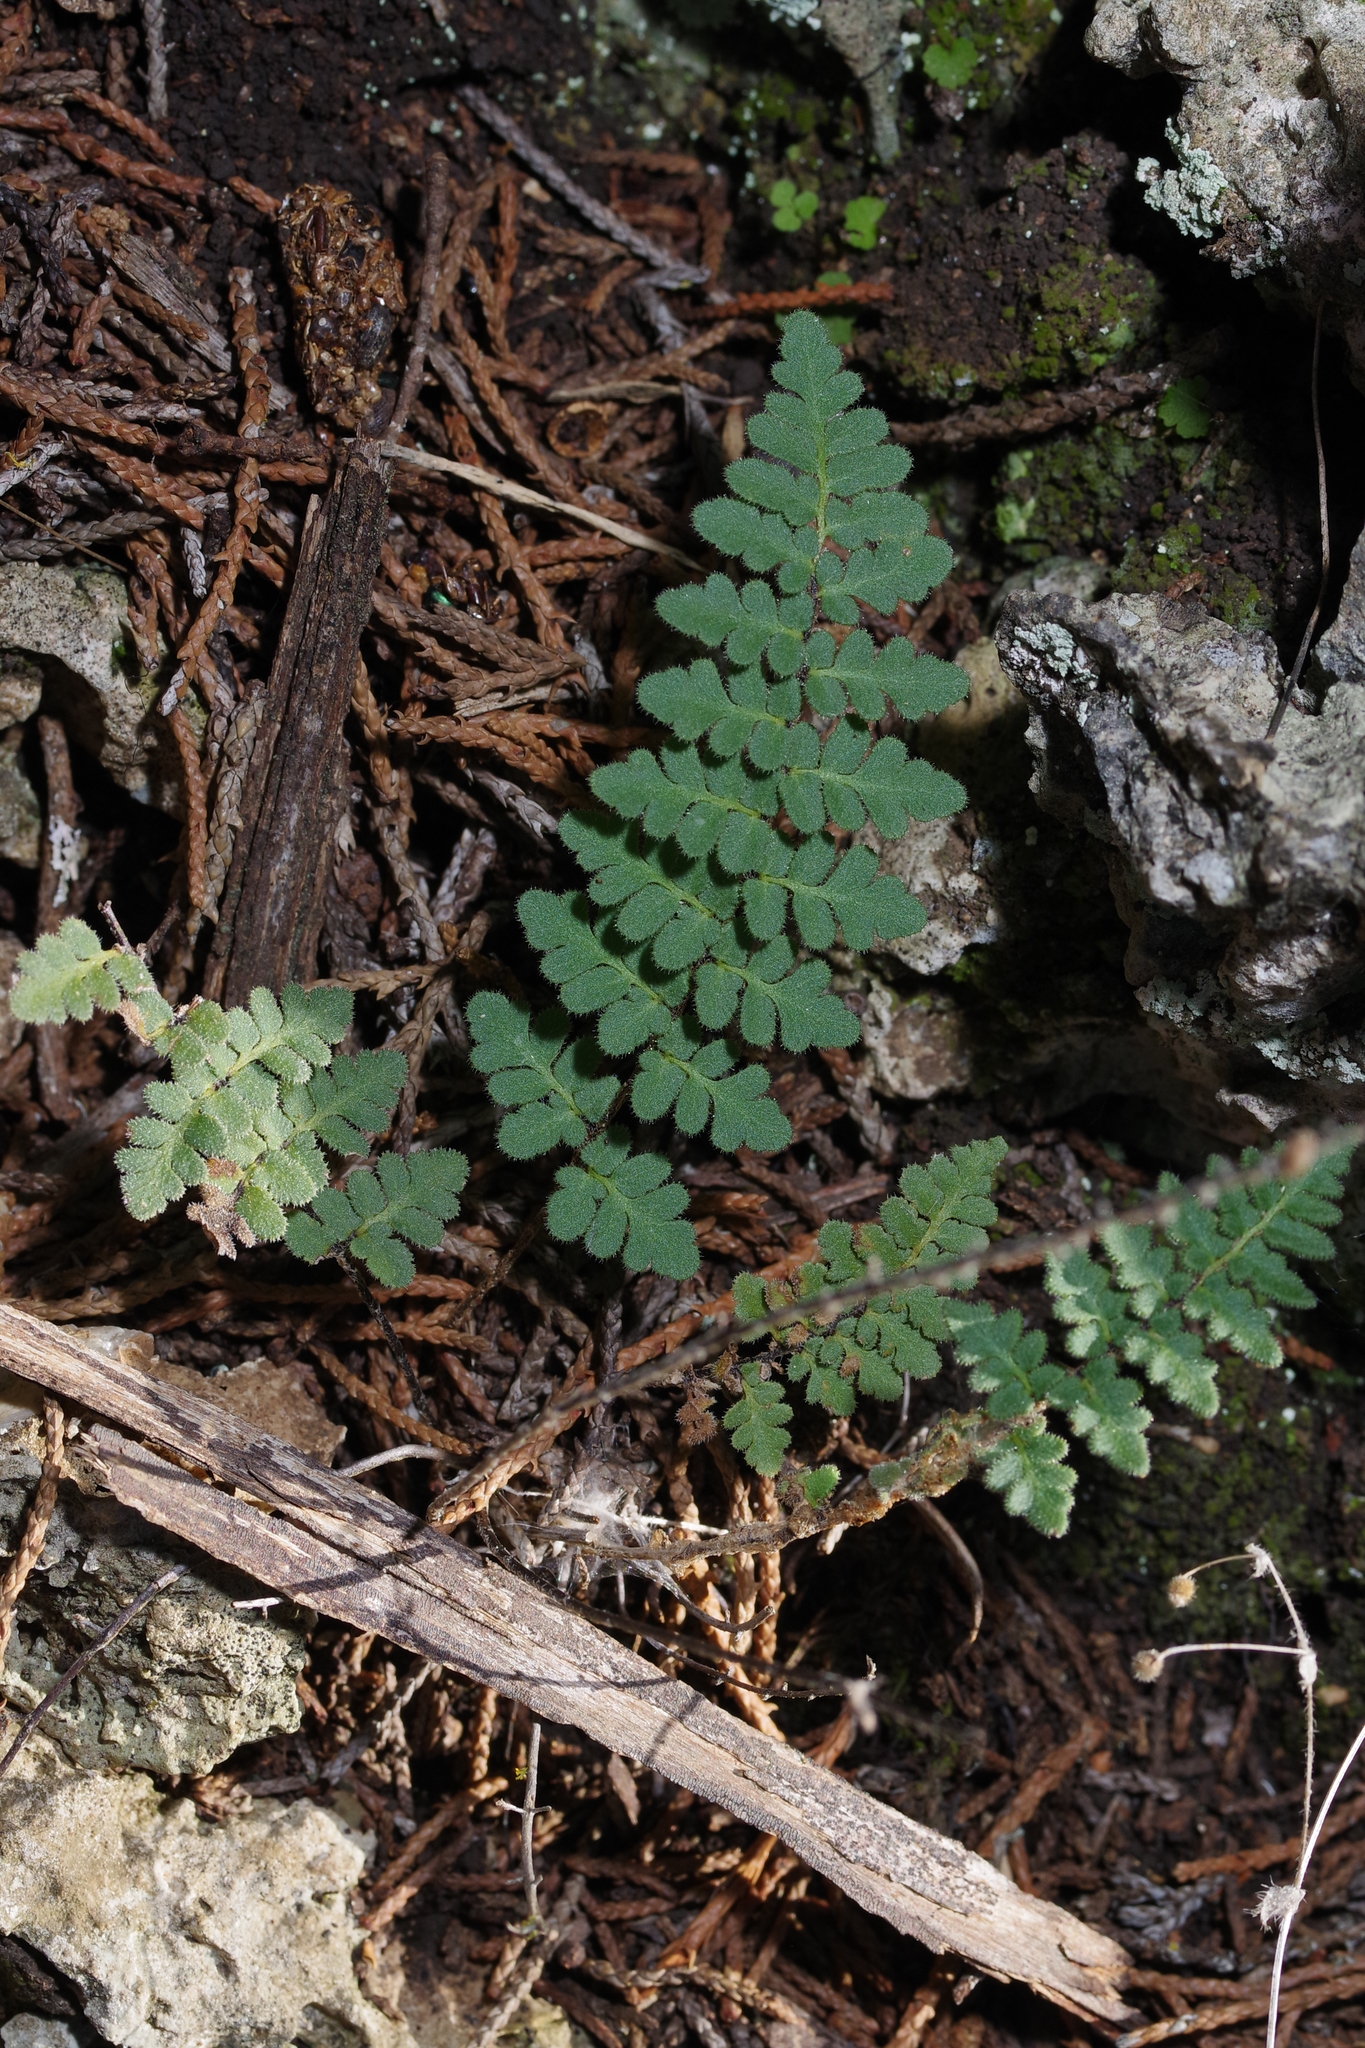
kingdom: Plantae
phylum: Tracheophyta
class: Polypodiopsida
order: Polypodiales
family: Pteridaceae
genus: Myriopteris
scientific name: Myriopteris scabra
